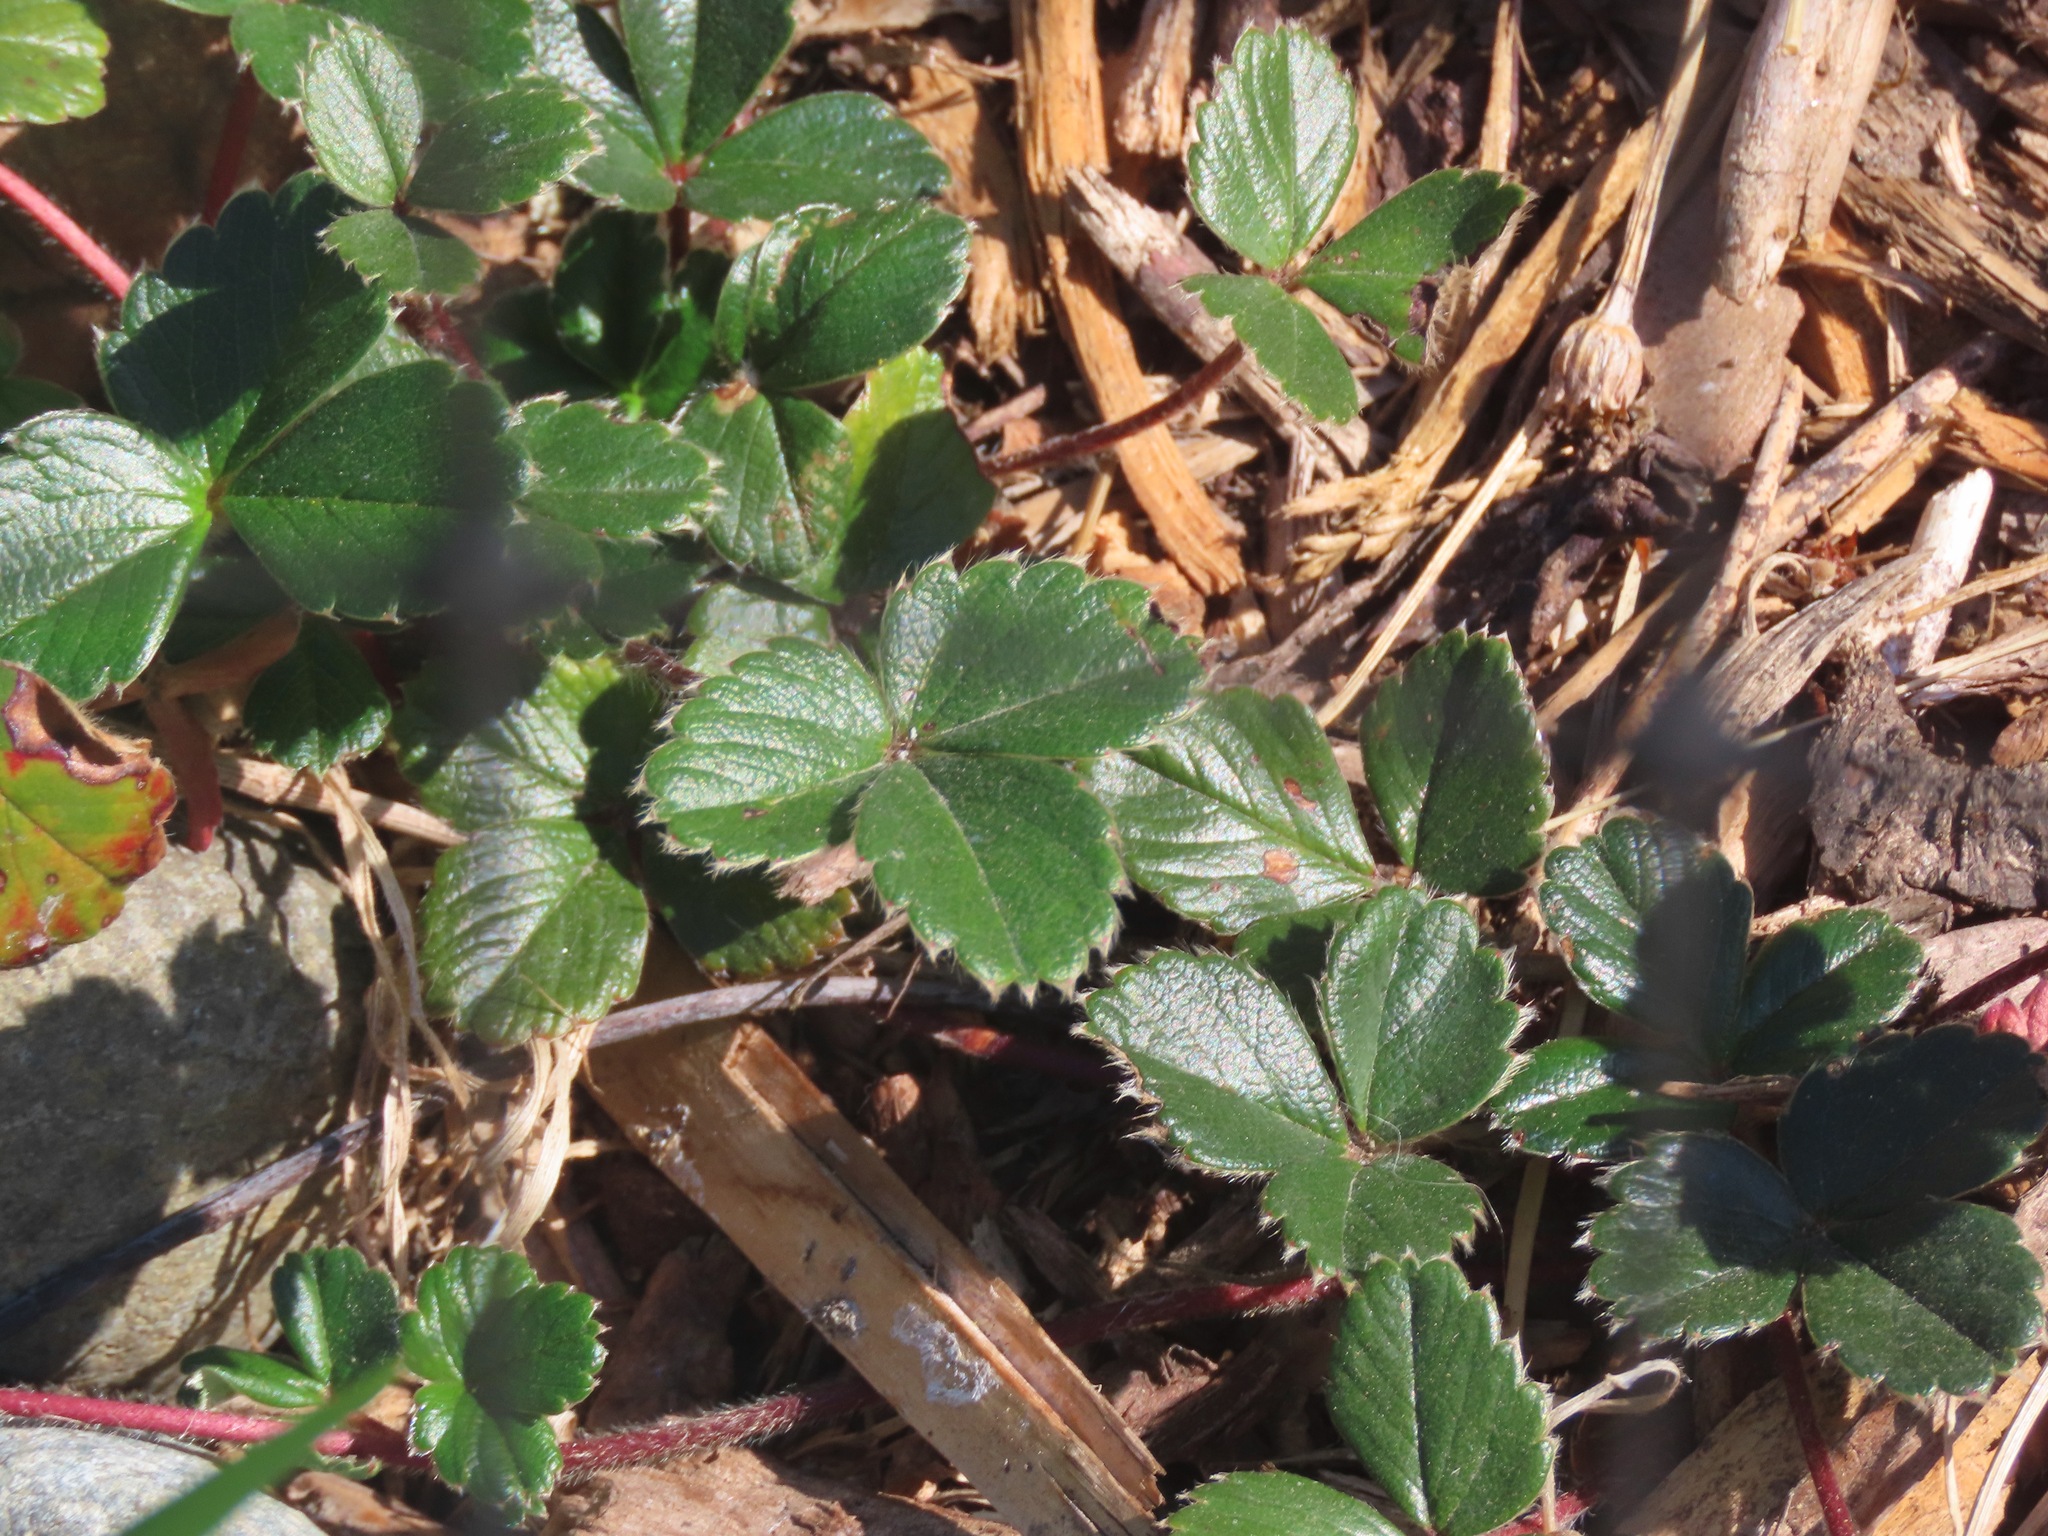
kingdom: Plantae
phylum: Tracheophyta
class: Magnoliopsida
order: Rosales
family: Rosaceae
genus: Fragaria
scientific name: Fragaria chiloensis
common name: Beach strawberry
